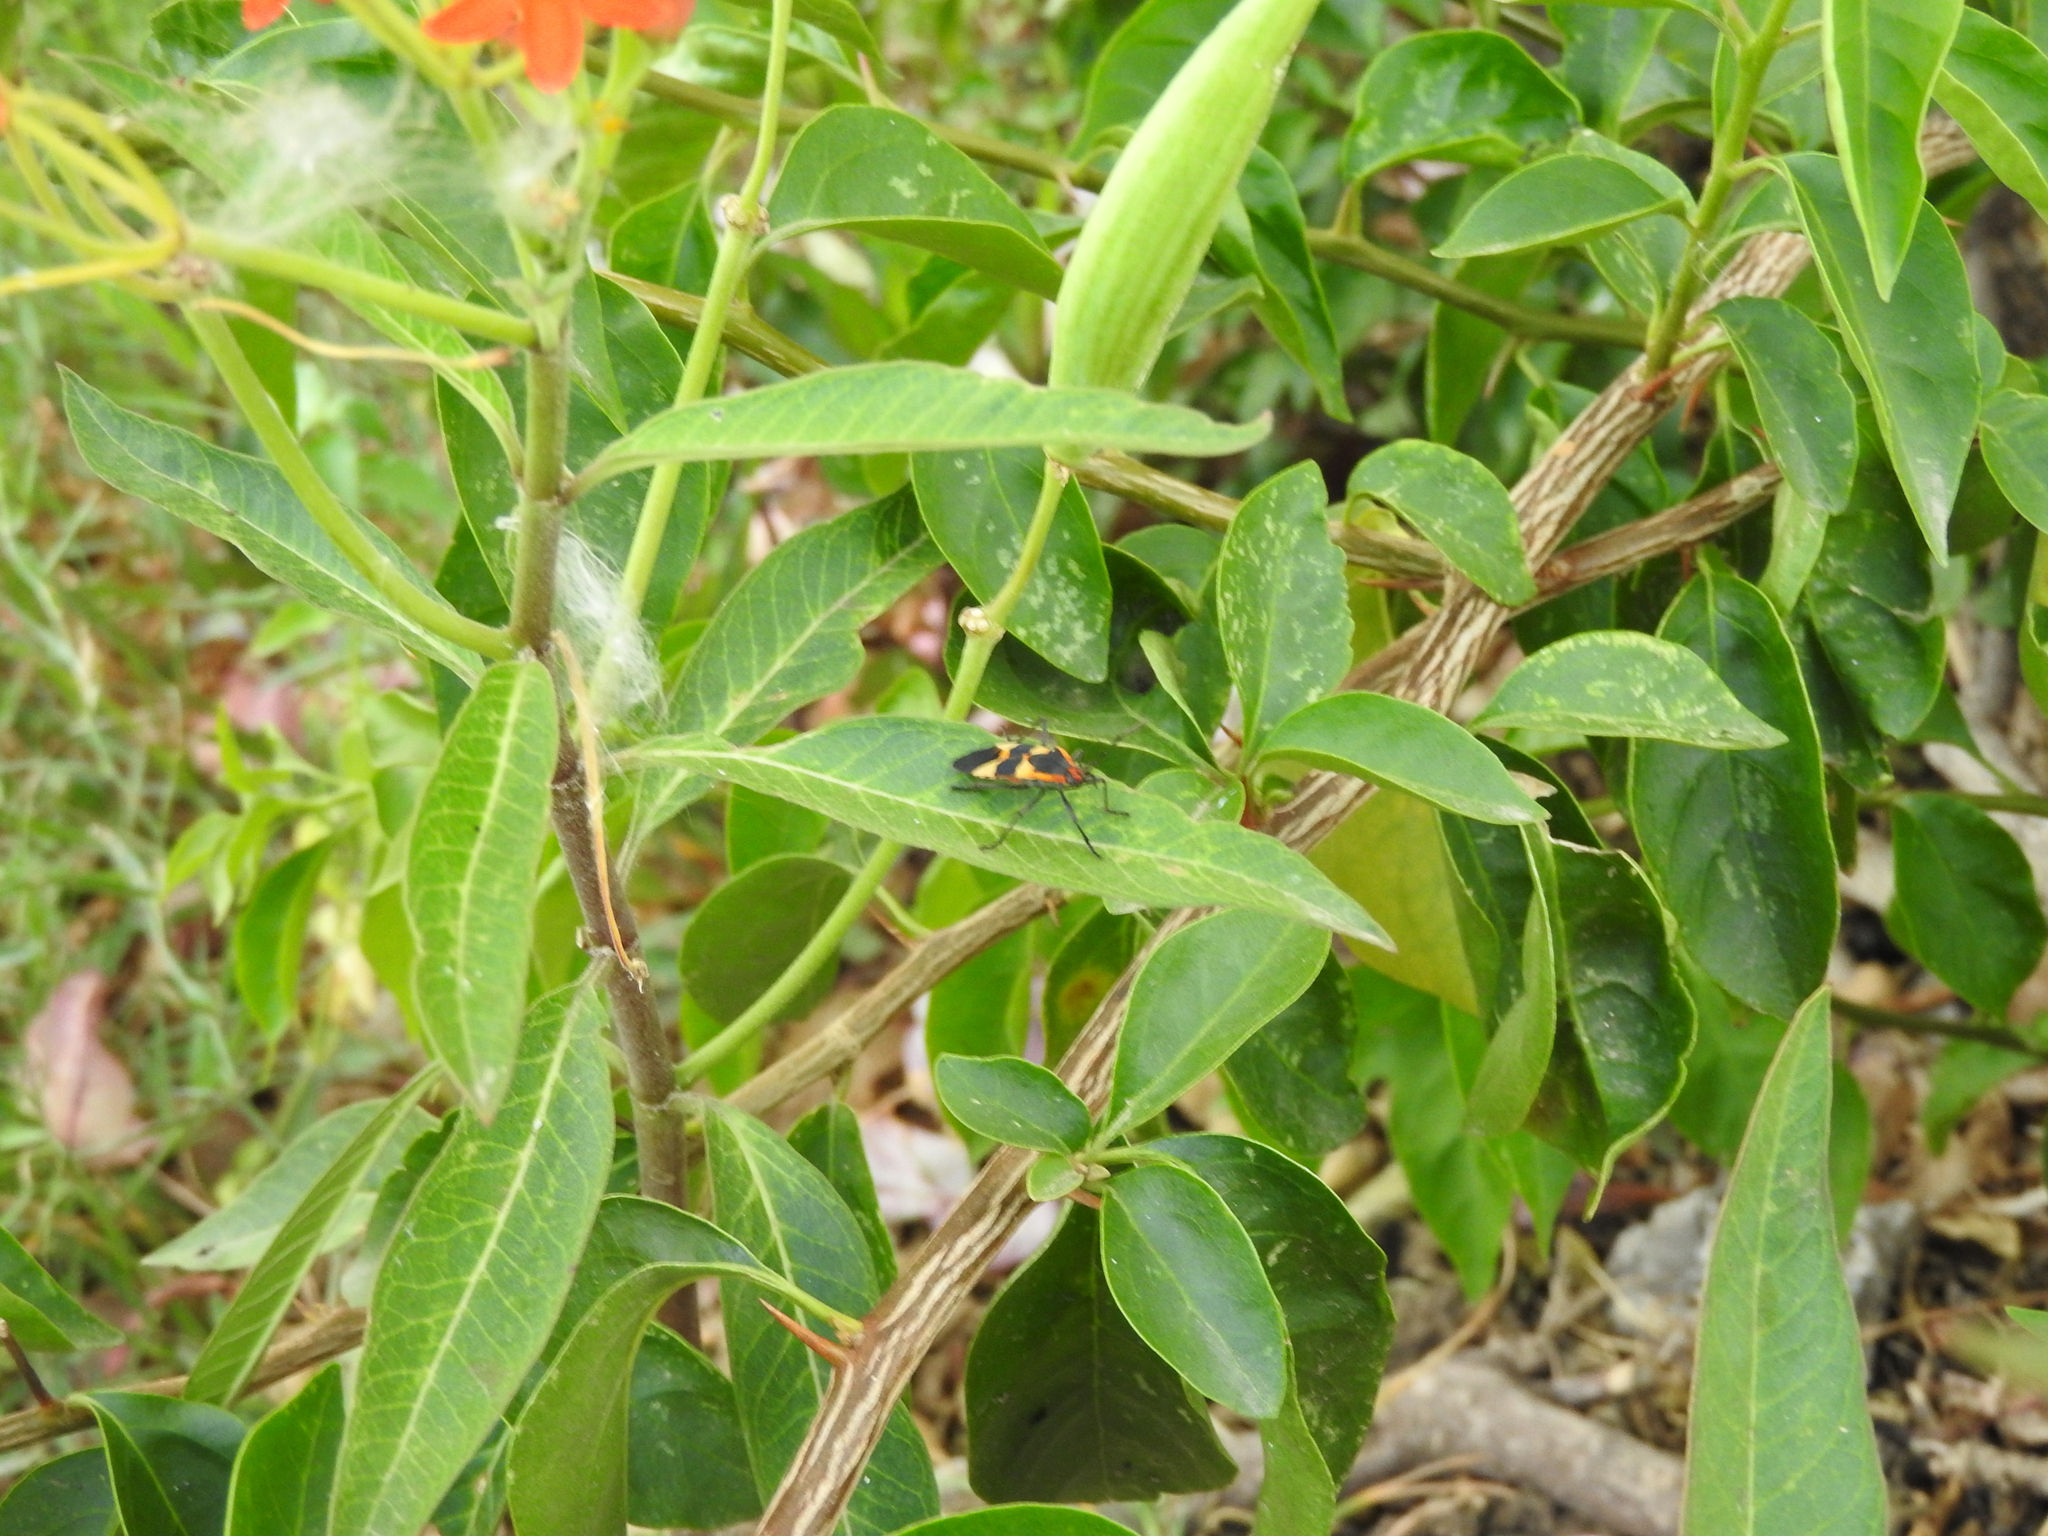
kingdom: Animalia
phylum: Arthropoda
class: Insecta
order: Hemiptera
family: Lygaeidae
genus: Oncopeltus
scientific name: Oncopeltus fasciatus
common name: Large milkweed bug
